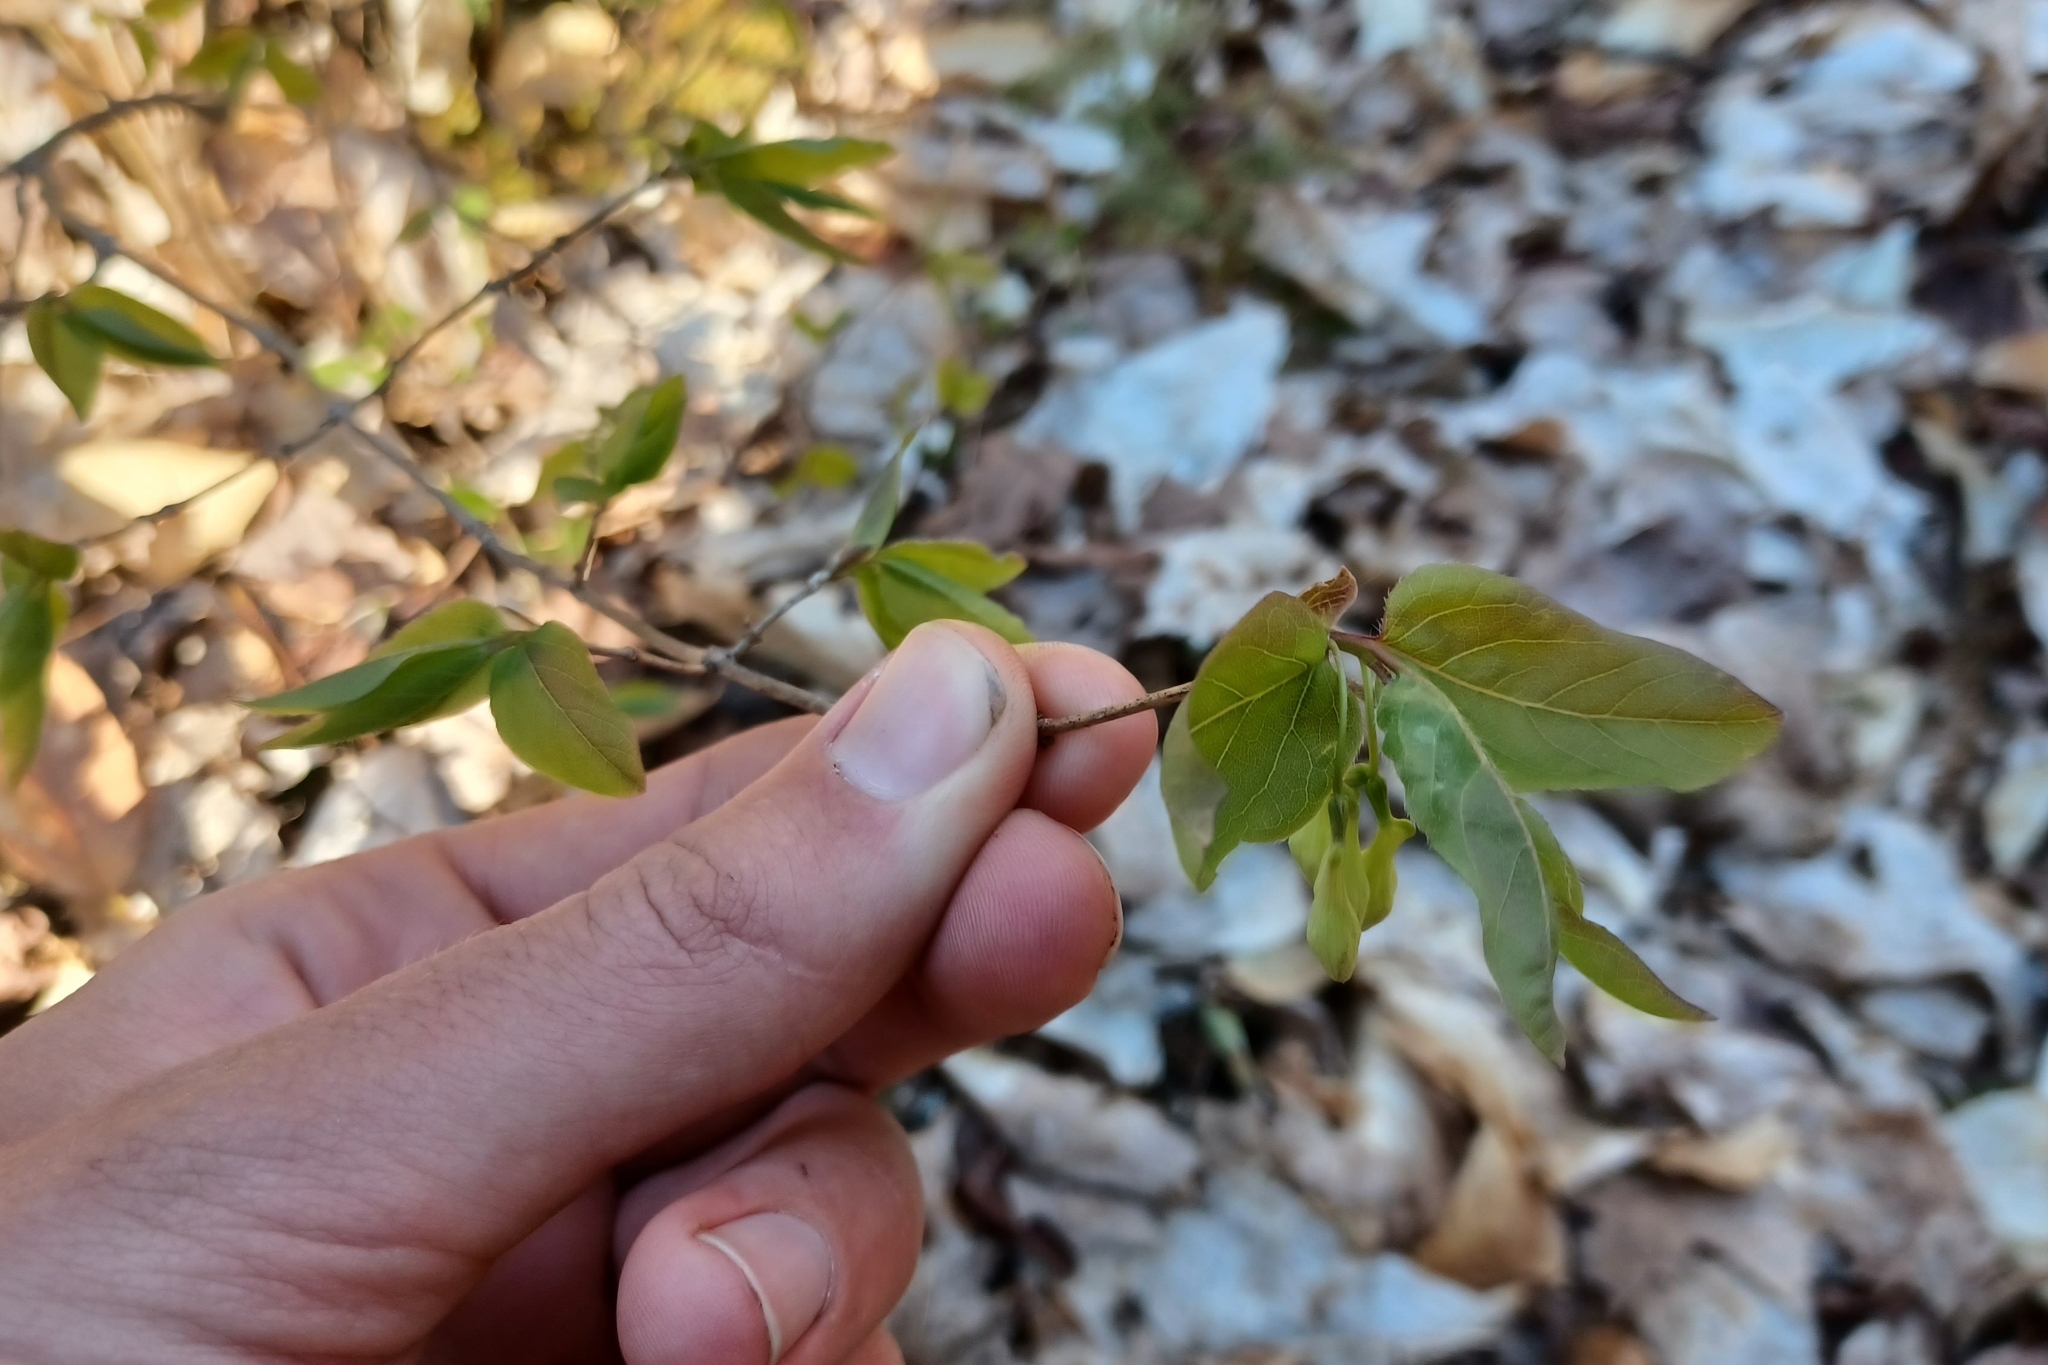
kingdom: Plantae
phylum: Tracheophyta
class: Magnoliopsida
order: Dipsacales
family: Caprifoliaceae
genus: Lonicera
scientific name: Lonicera canadensis
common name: American fly-honeysuckle
